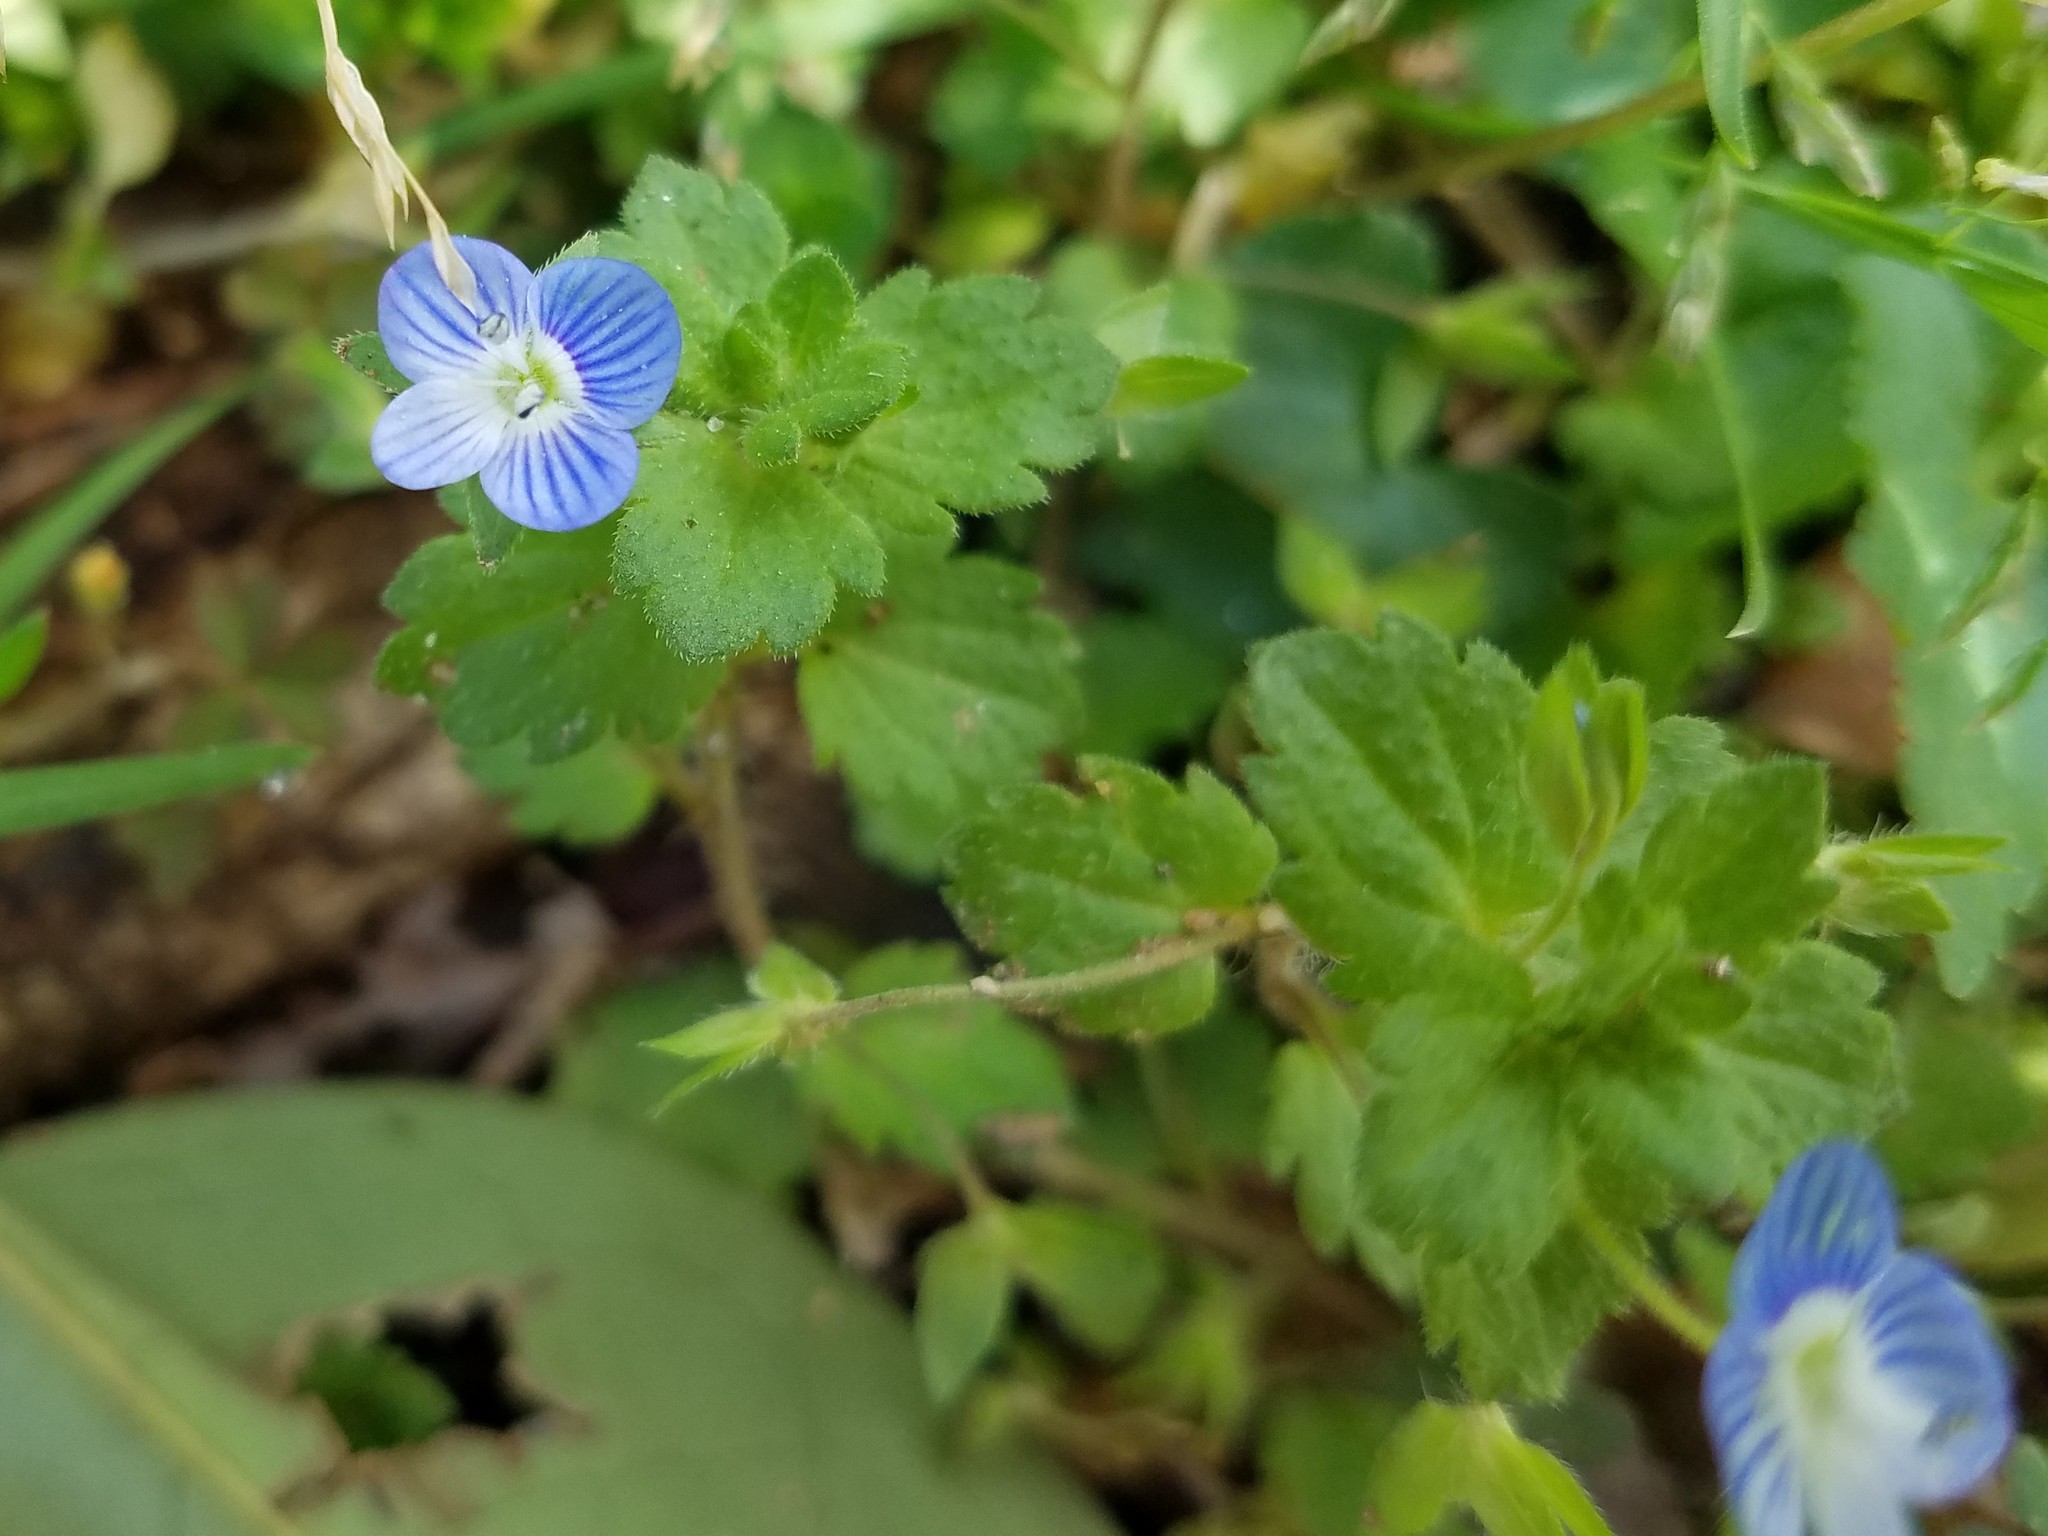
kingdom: Plantae
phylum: Tracheophyta
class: Magnoliopsida
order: Lamiales
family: Plantaginaceae
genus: Veronica
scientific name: Veronica persica
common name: Common field-speedwell
